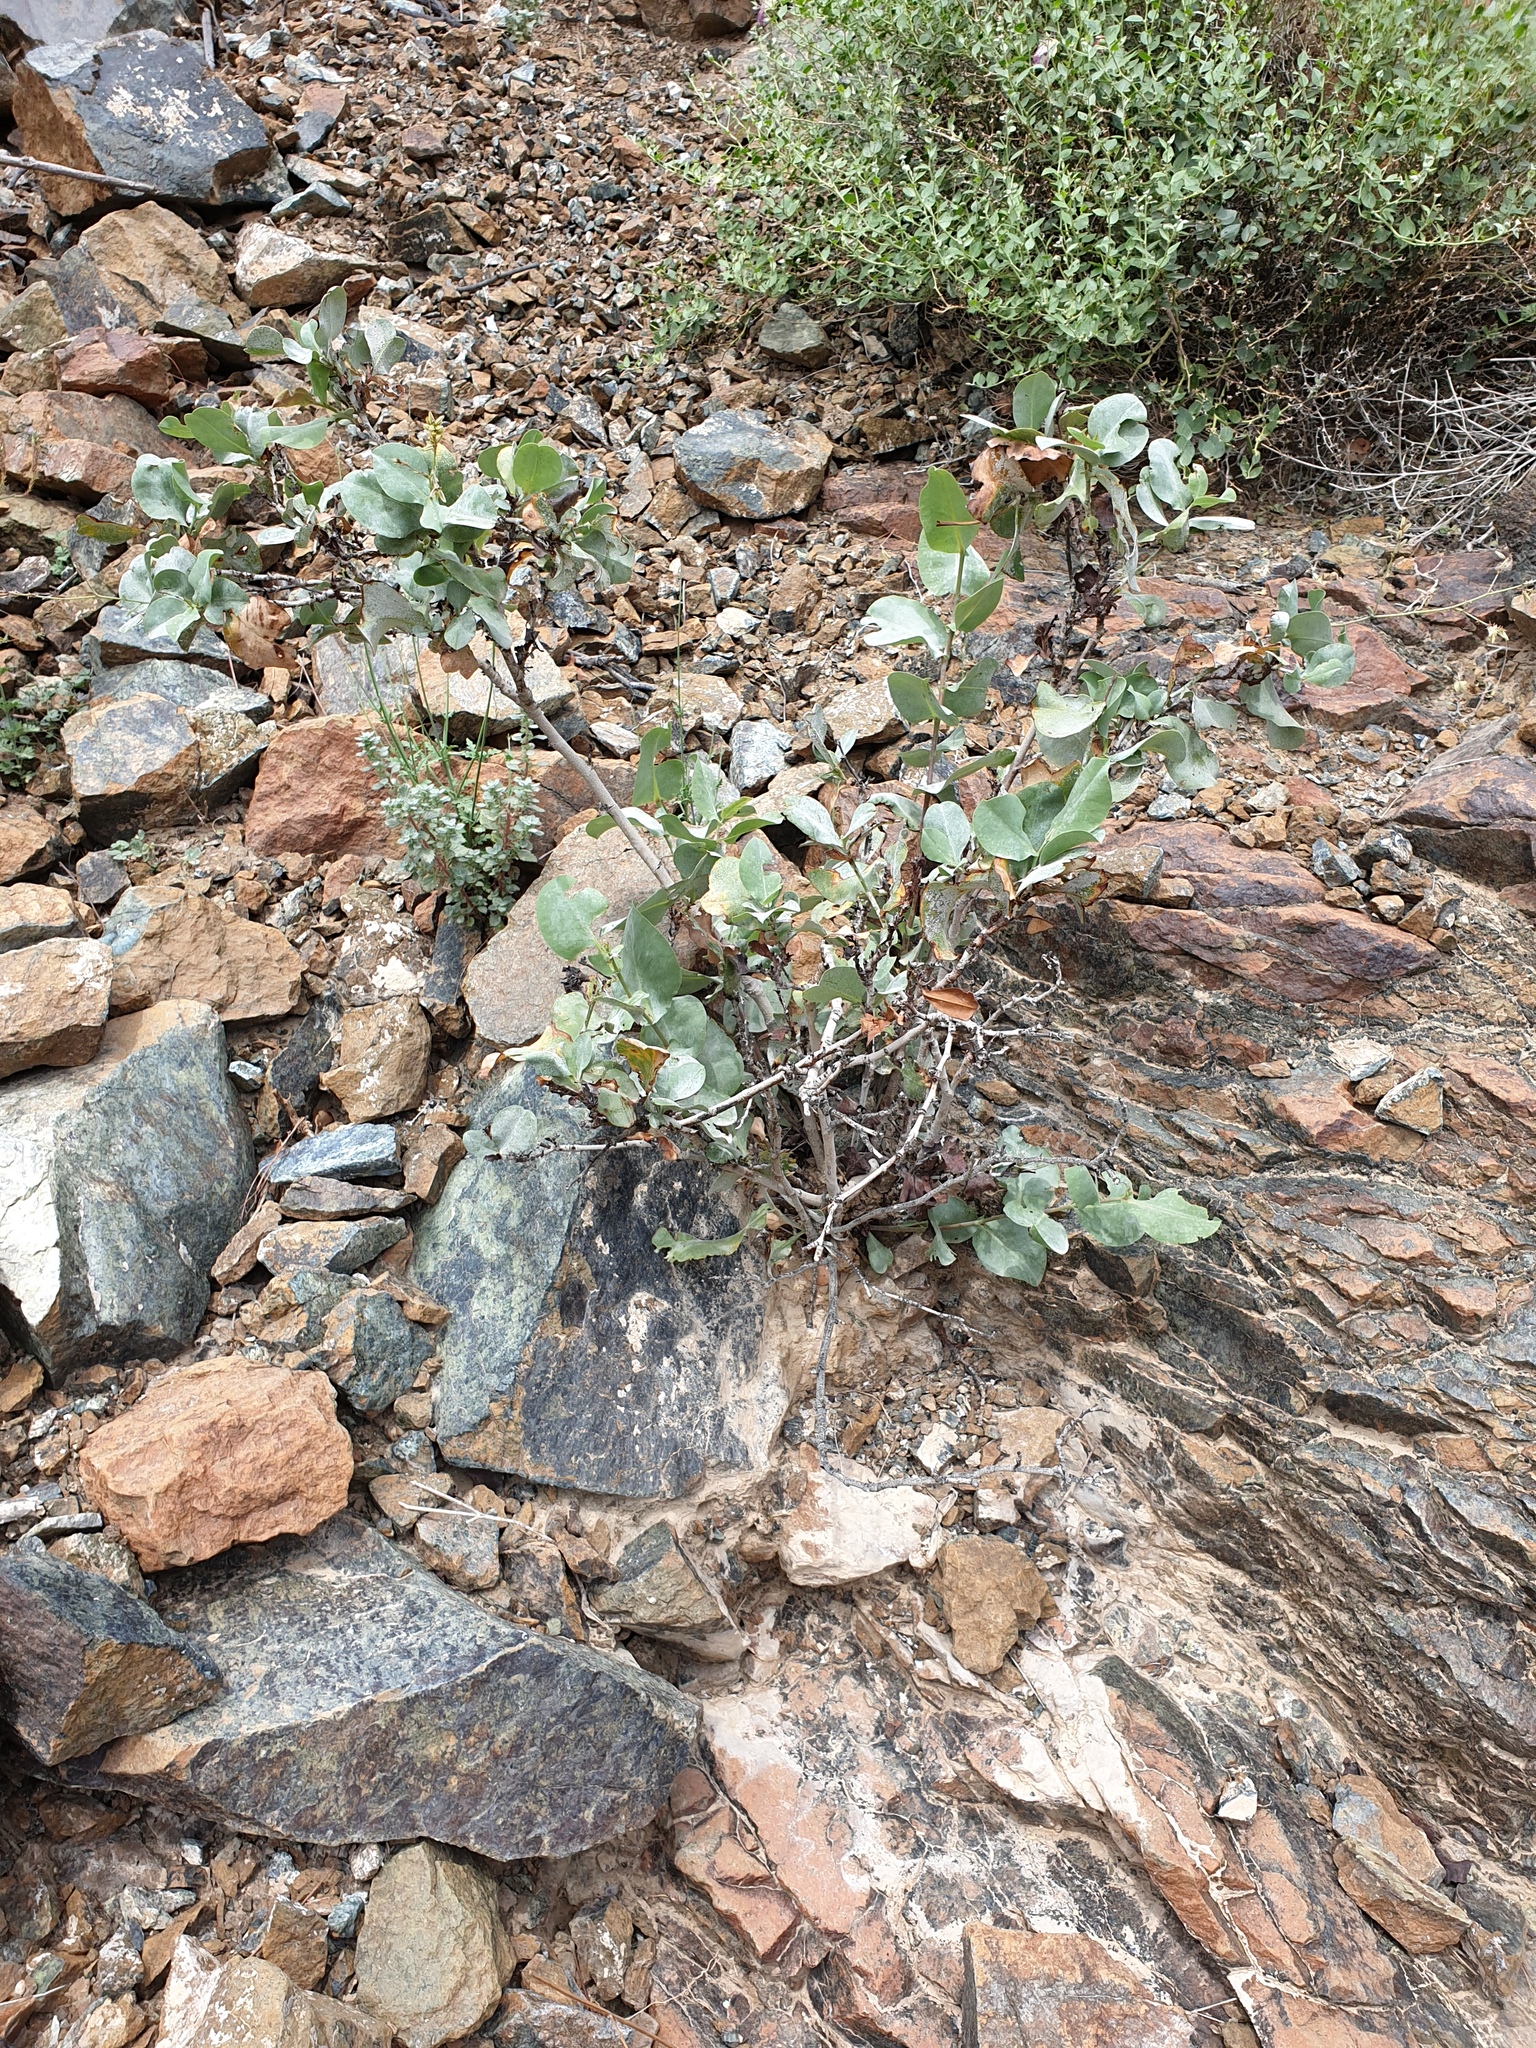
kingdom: Plantae
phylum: Tracheophyta
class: Magnoliopsida
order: Caryophyllales
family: Plumbaginaceae
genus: Dyerophytum
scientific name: Dyerophytum indicum
